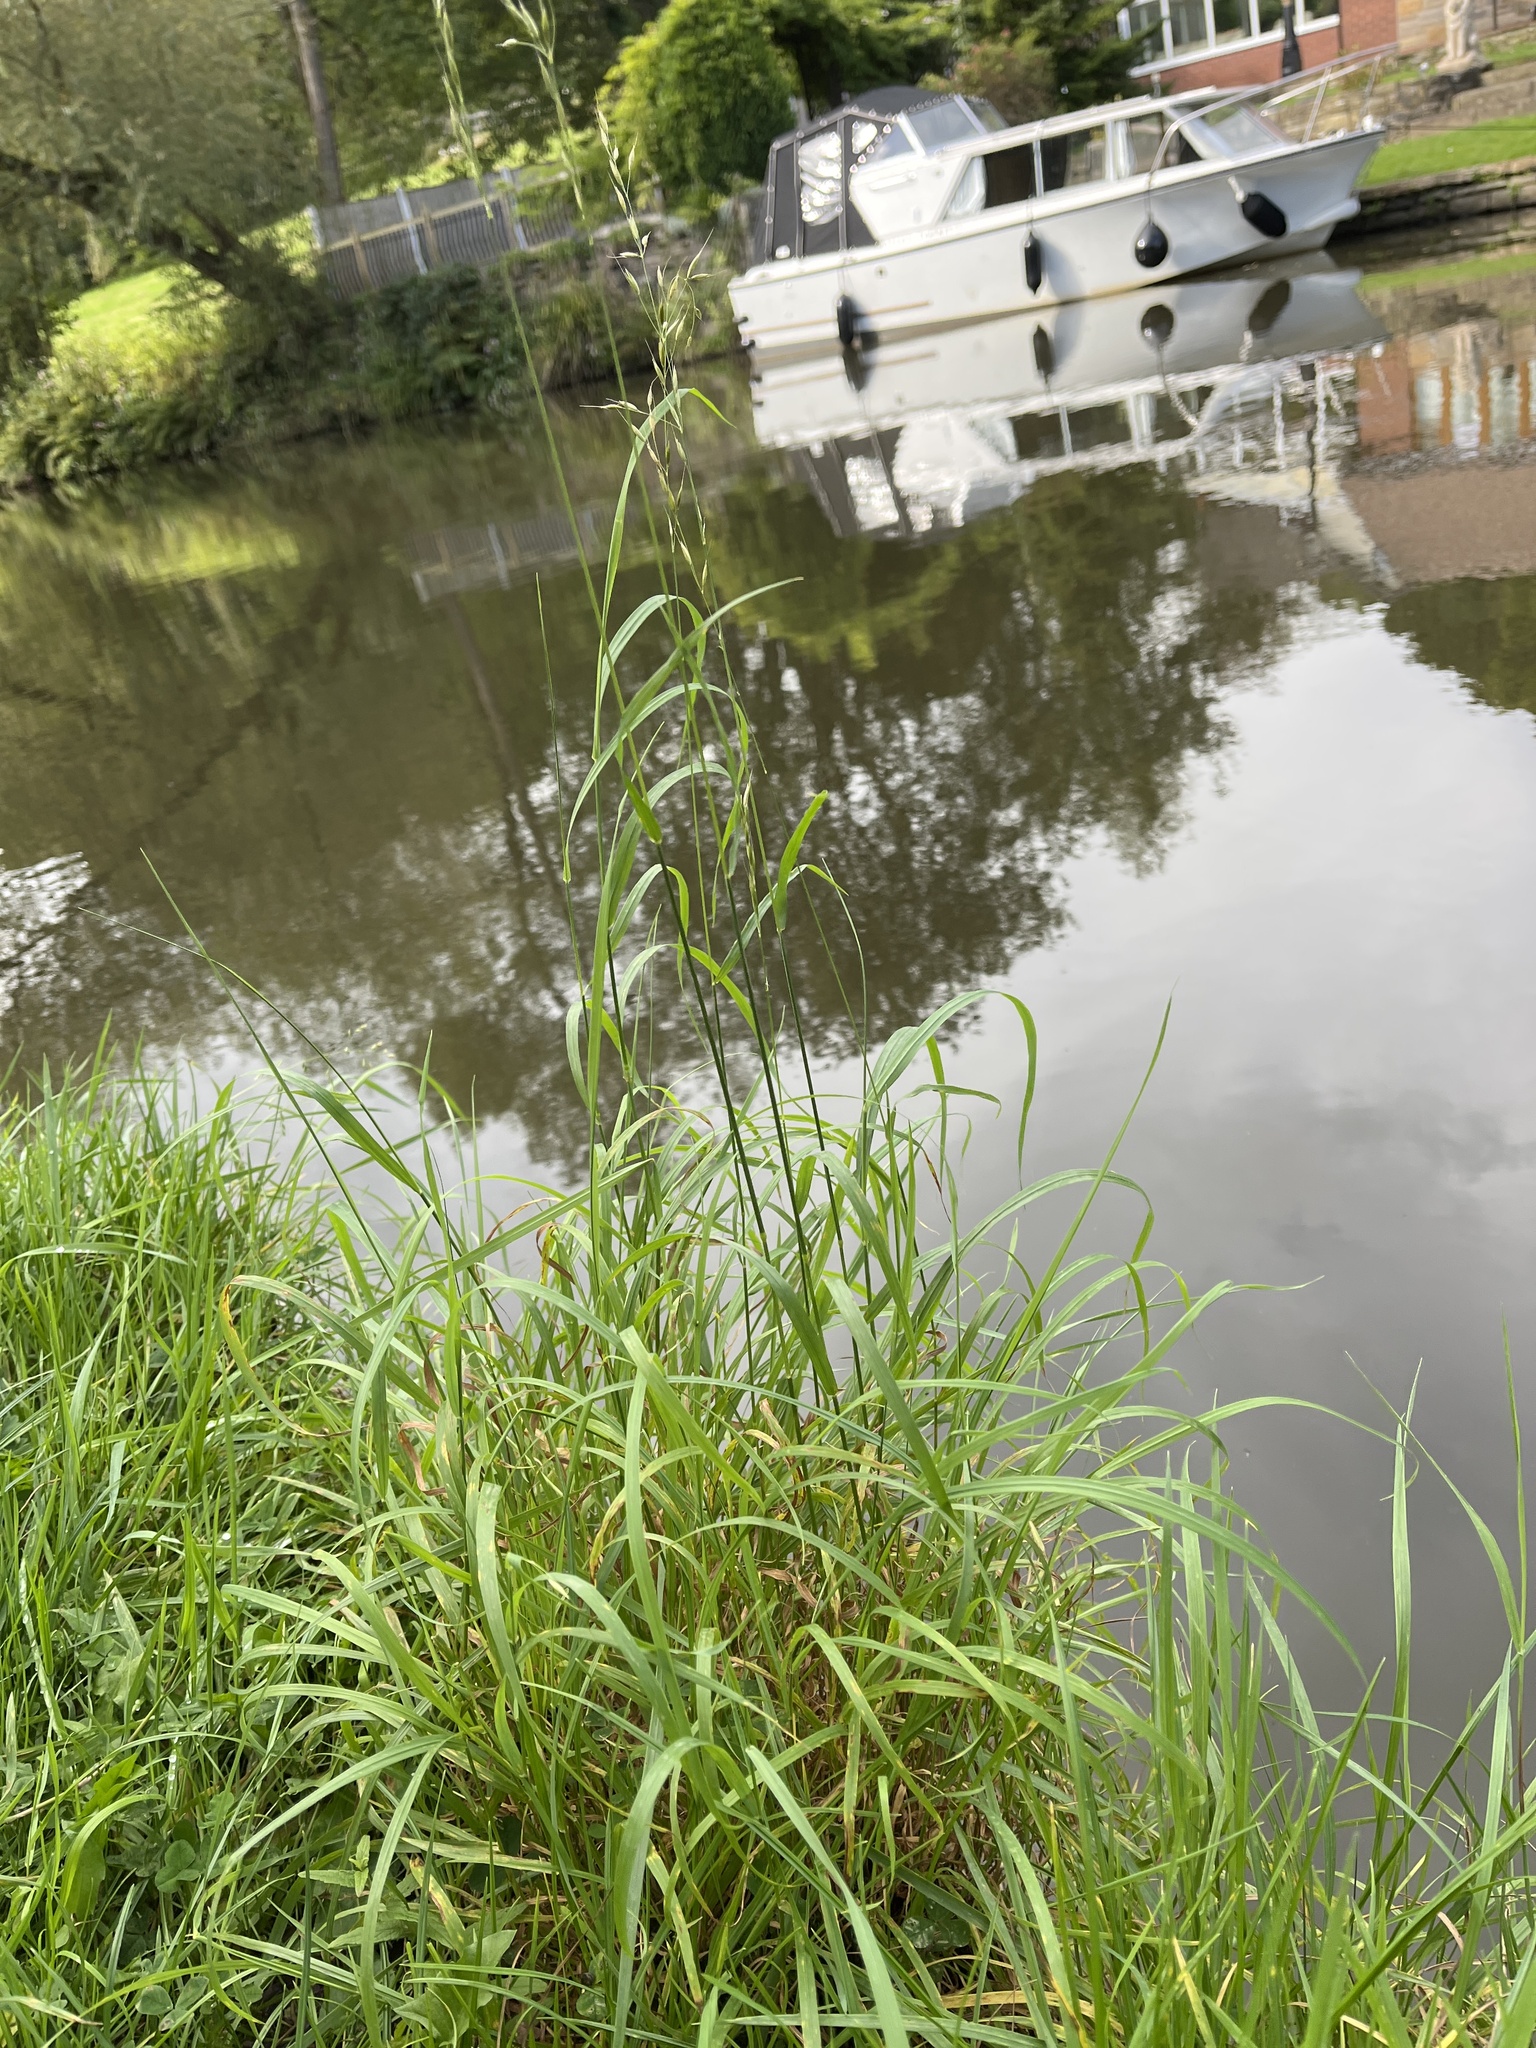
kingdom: Plantae
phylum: Tracheophyta
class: Liliopsida
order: Poales
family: Poaceae
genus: Arrhenatherum
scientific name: Arrhenatherum elatius
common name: Tall oatgrass
